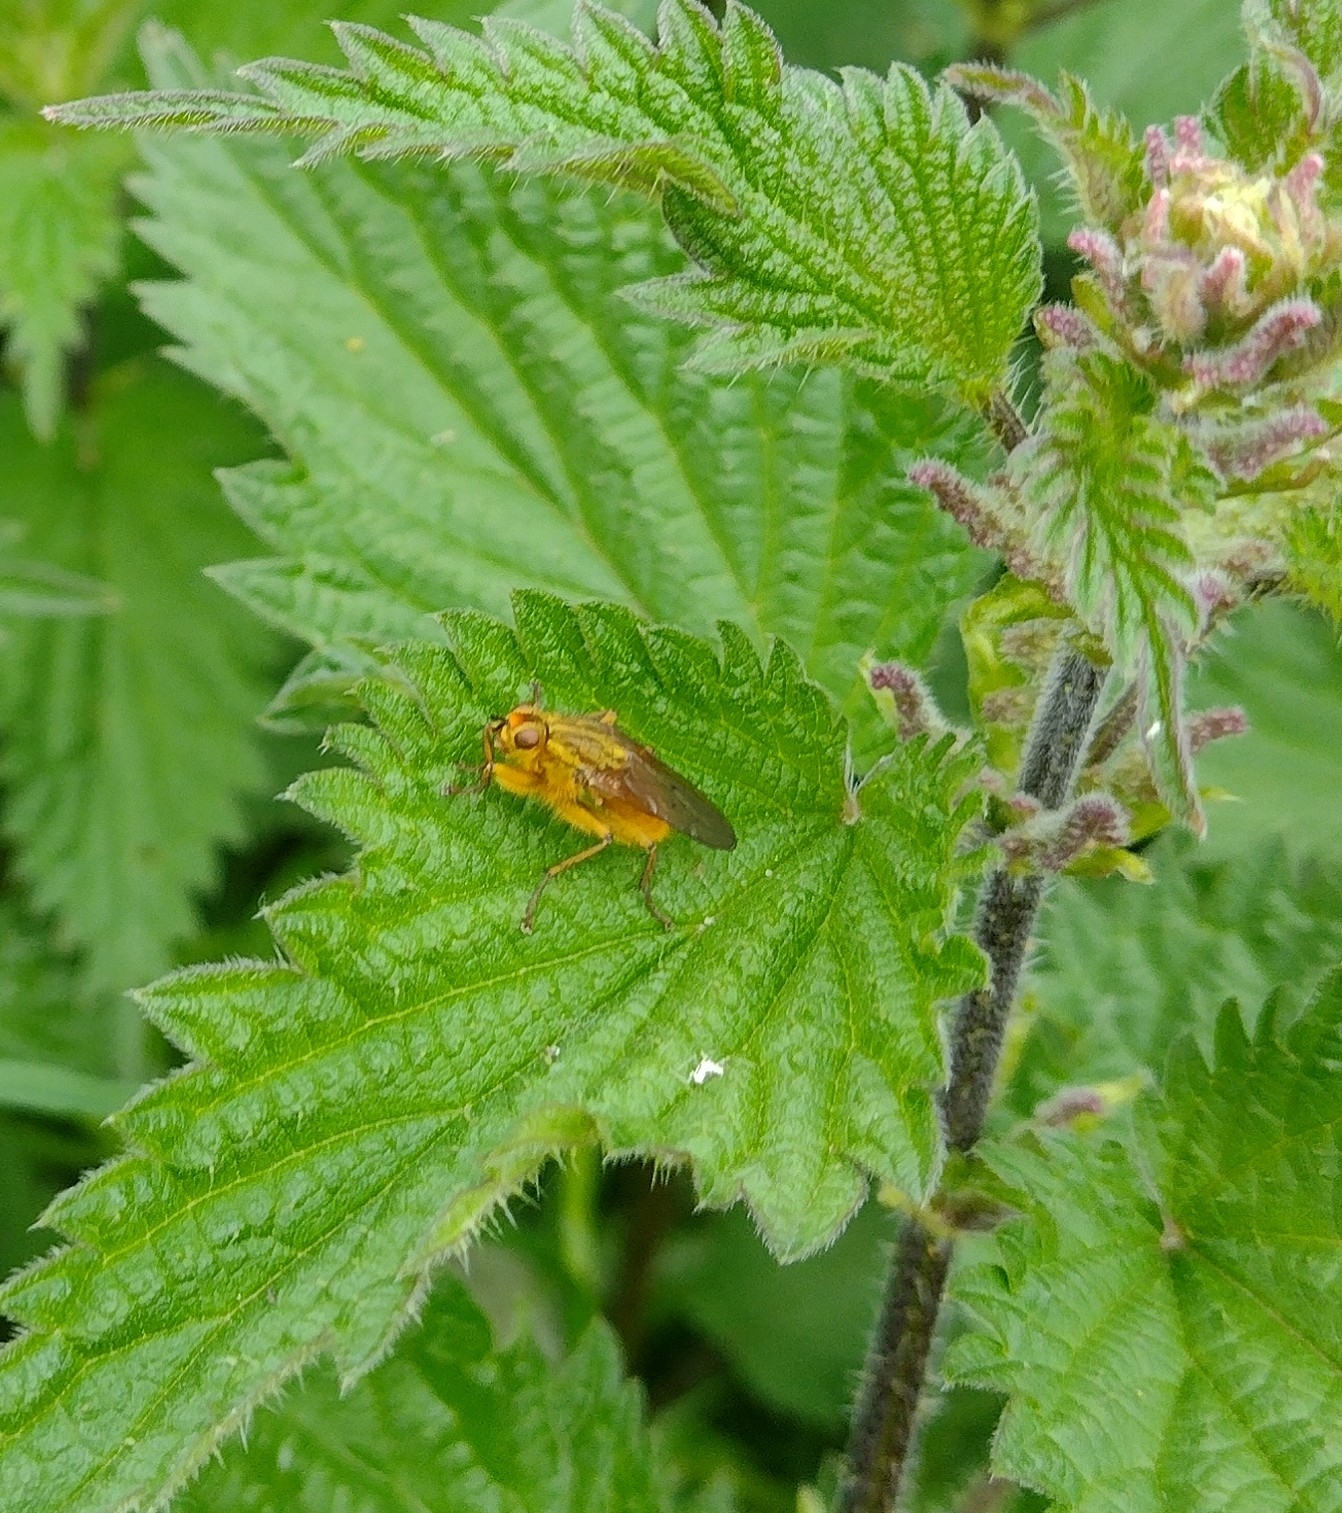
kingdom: Animalia
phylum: Arthropoda
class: Insecta
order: Diptera
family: Scathophagidae
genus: Scathophaga
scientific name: Scathophaga stercoraria
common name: Yellow dung fly
